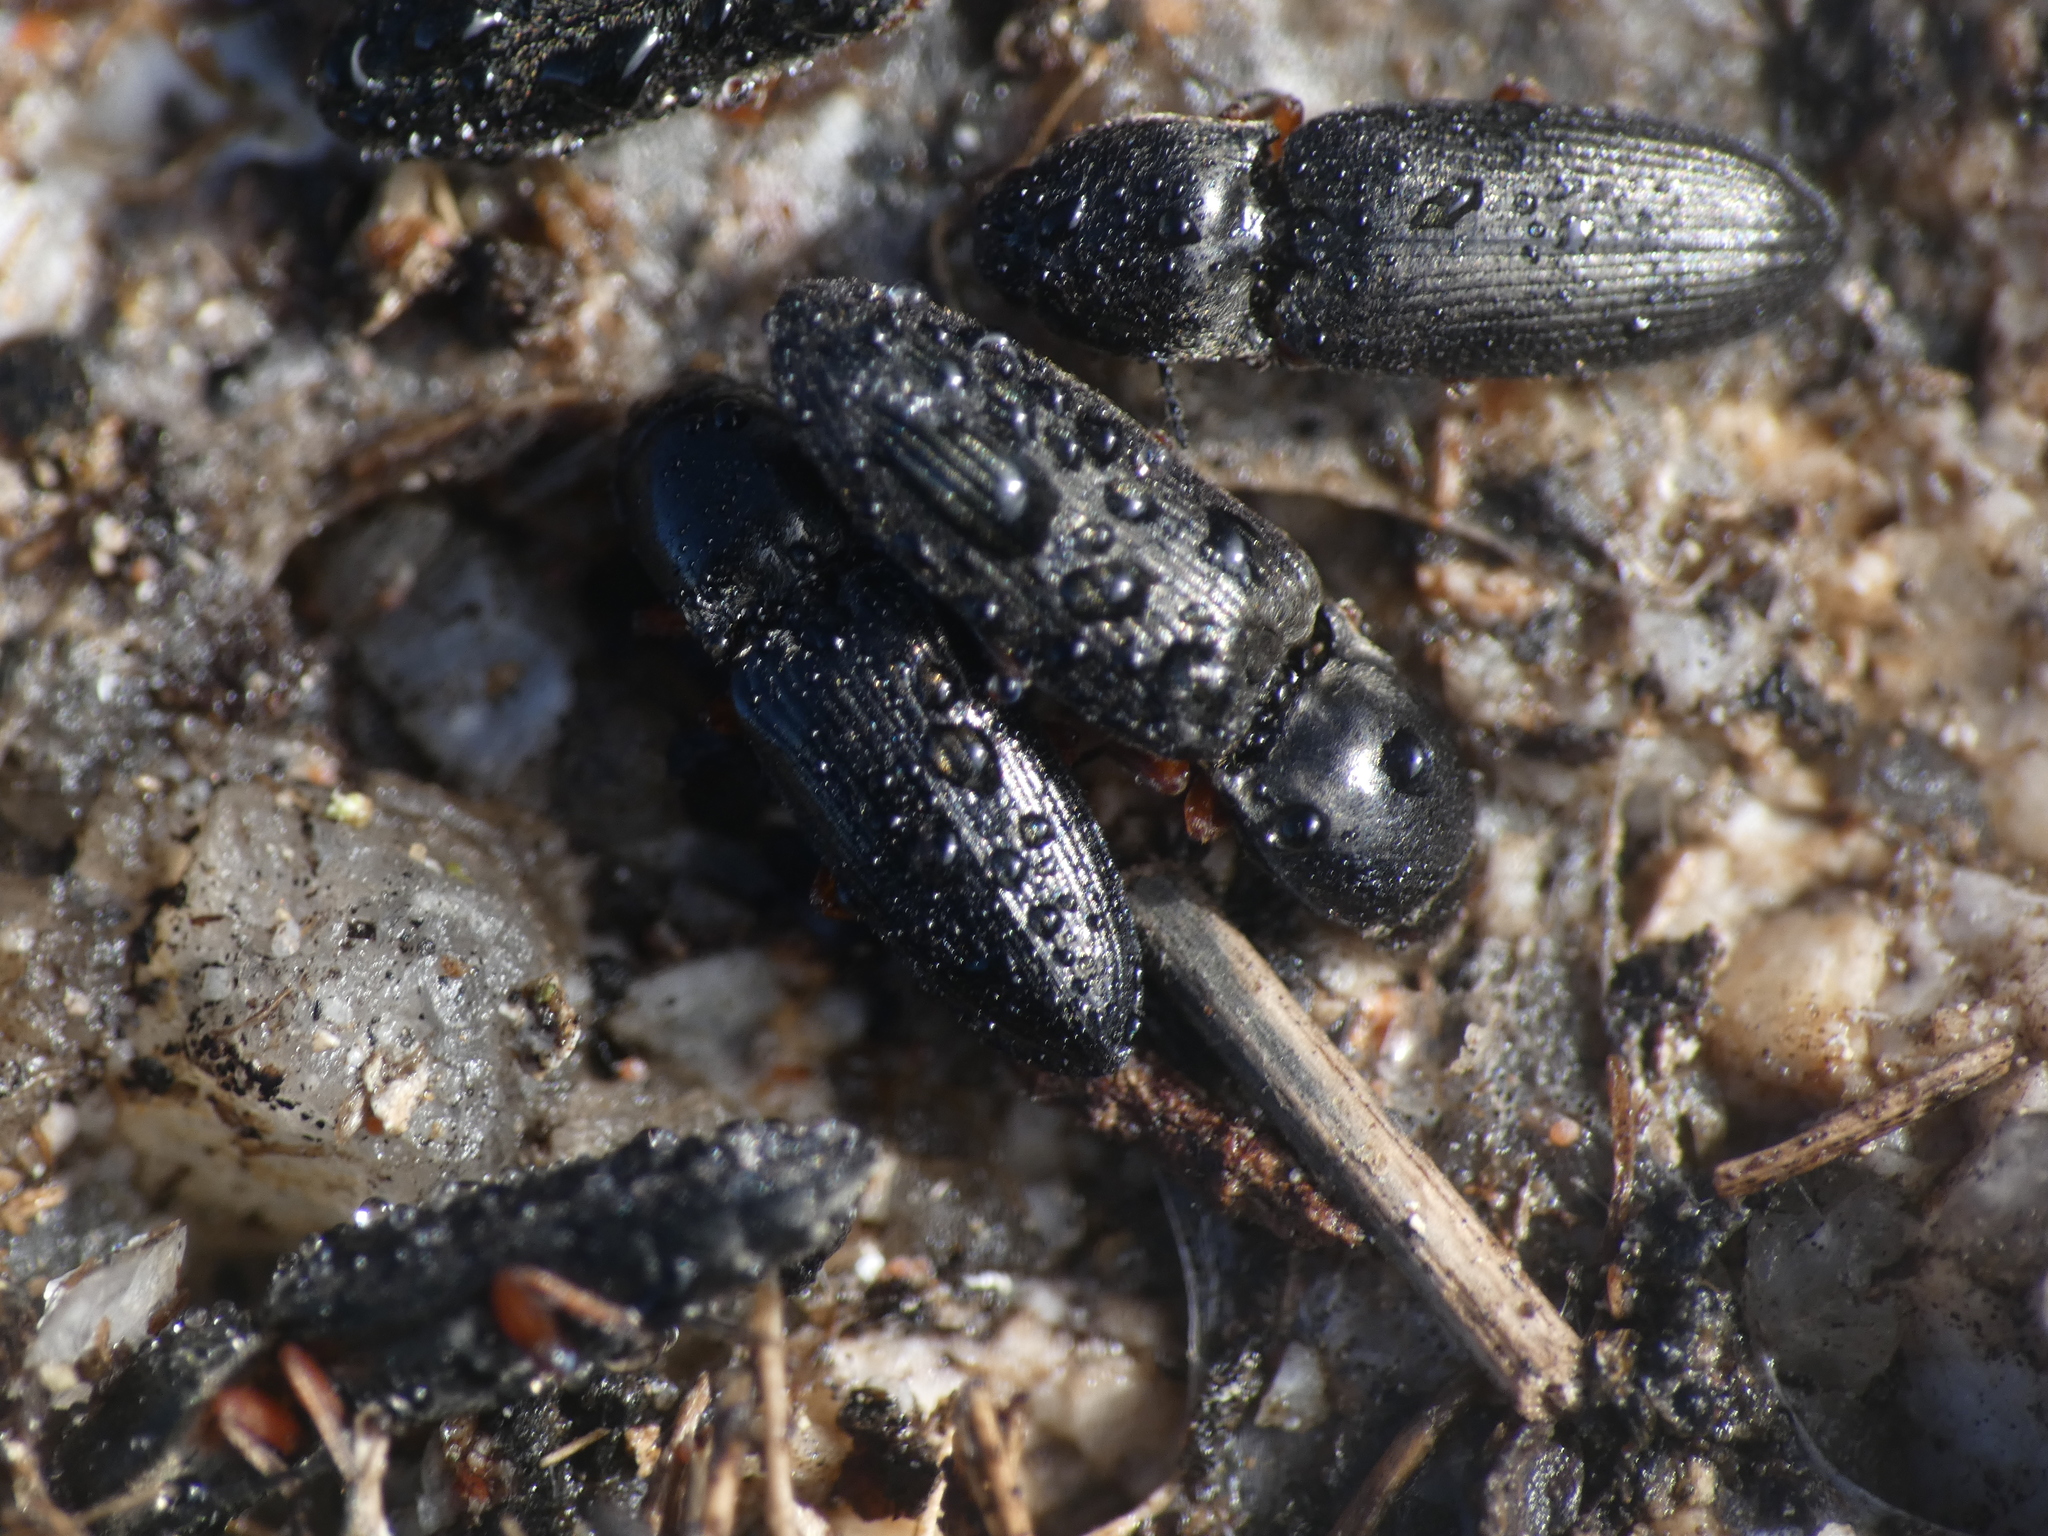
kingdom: Animalia
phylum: Arthropoda
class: Insecta
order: Coleoptera
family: Elateridae
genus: Cardiophorus
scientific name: Cardiophorus rufipes
